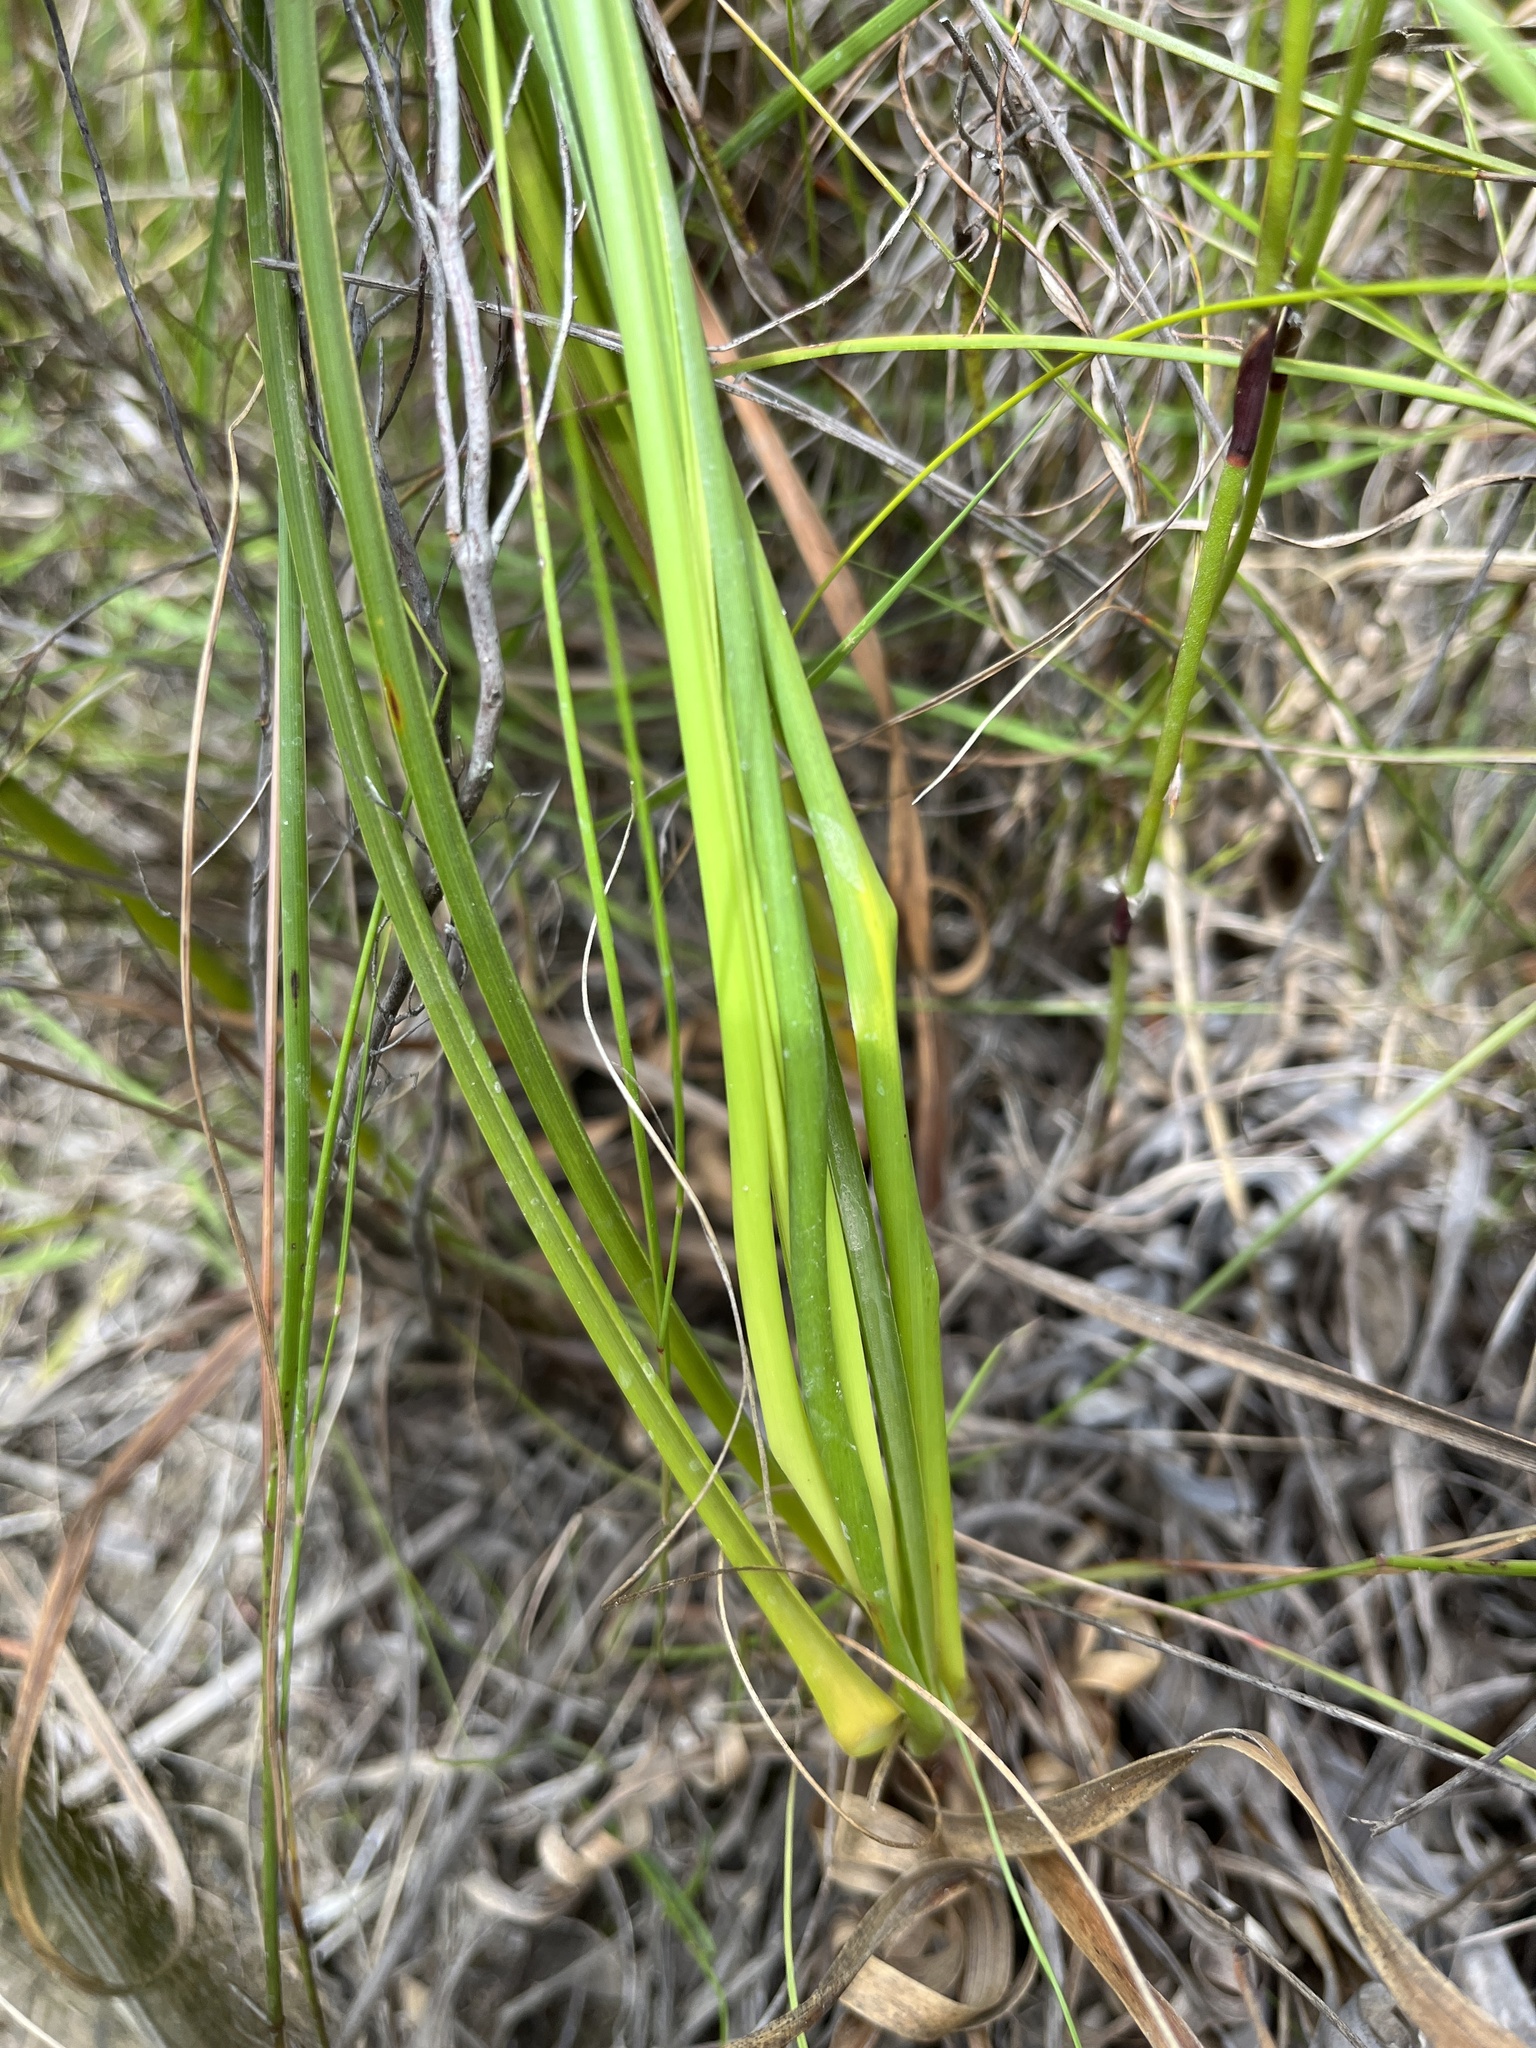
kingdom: Plantae
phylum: Tracheophyta
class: Liliopsida
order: Asparagales
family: Iridaceae
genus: Tritoniopsis
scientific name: Tritoniopsis triticea
